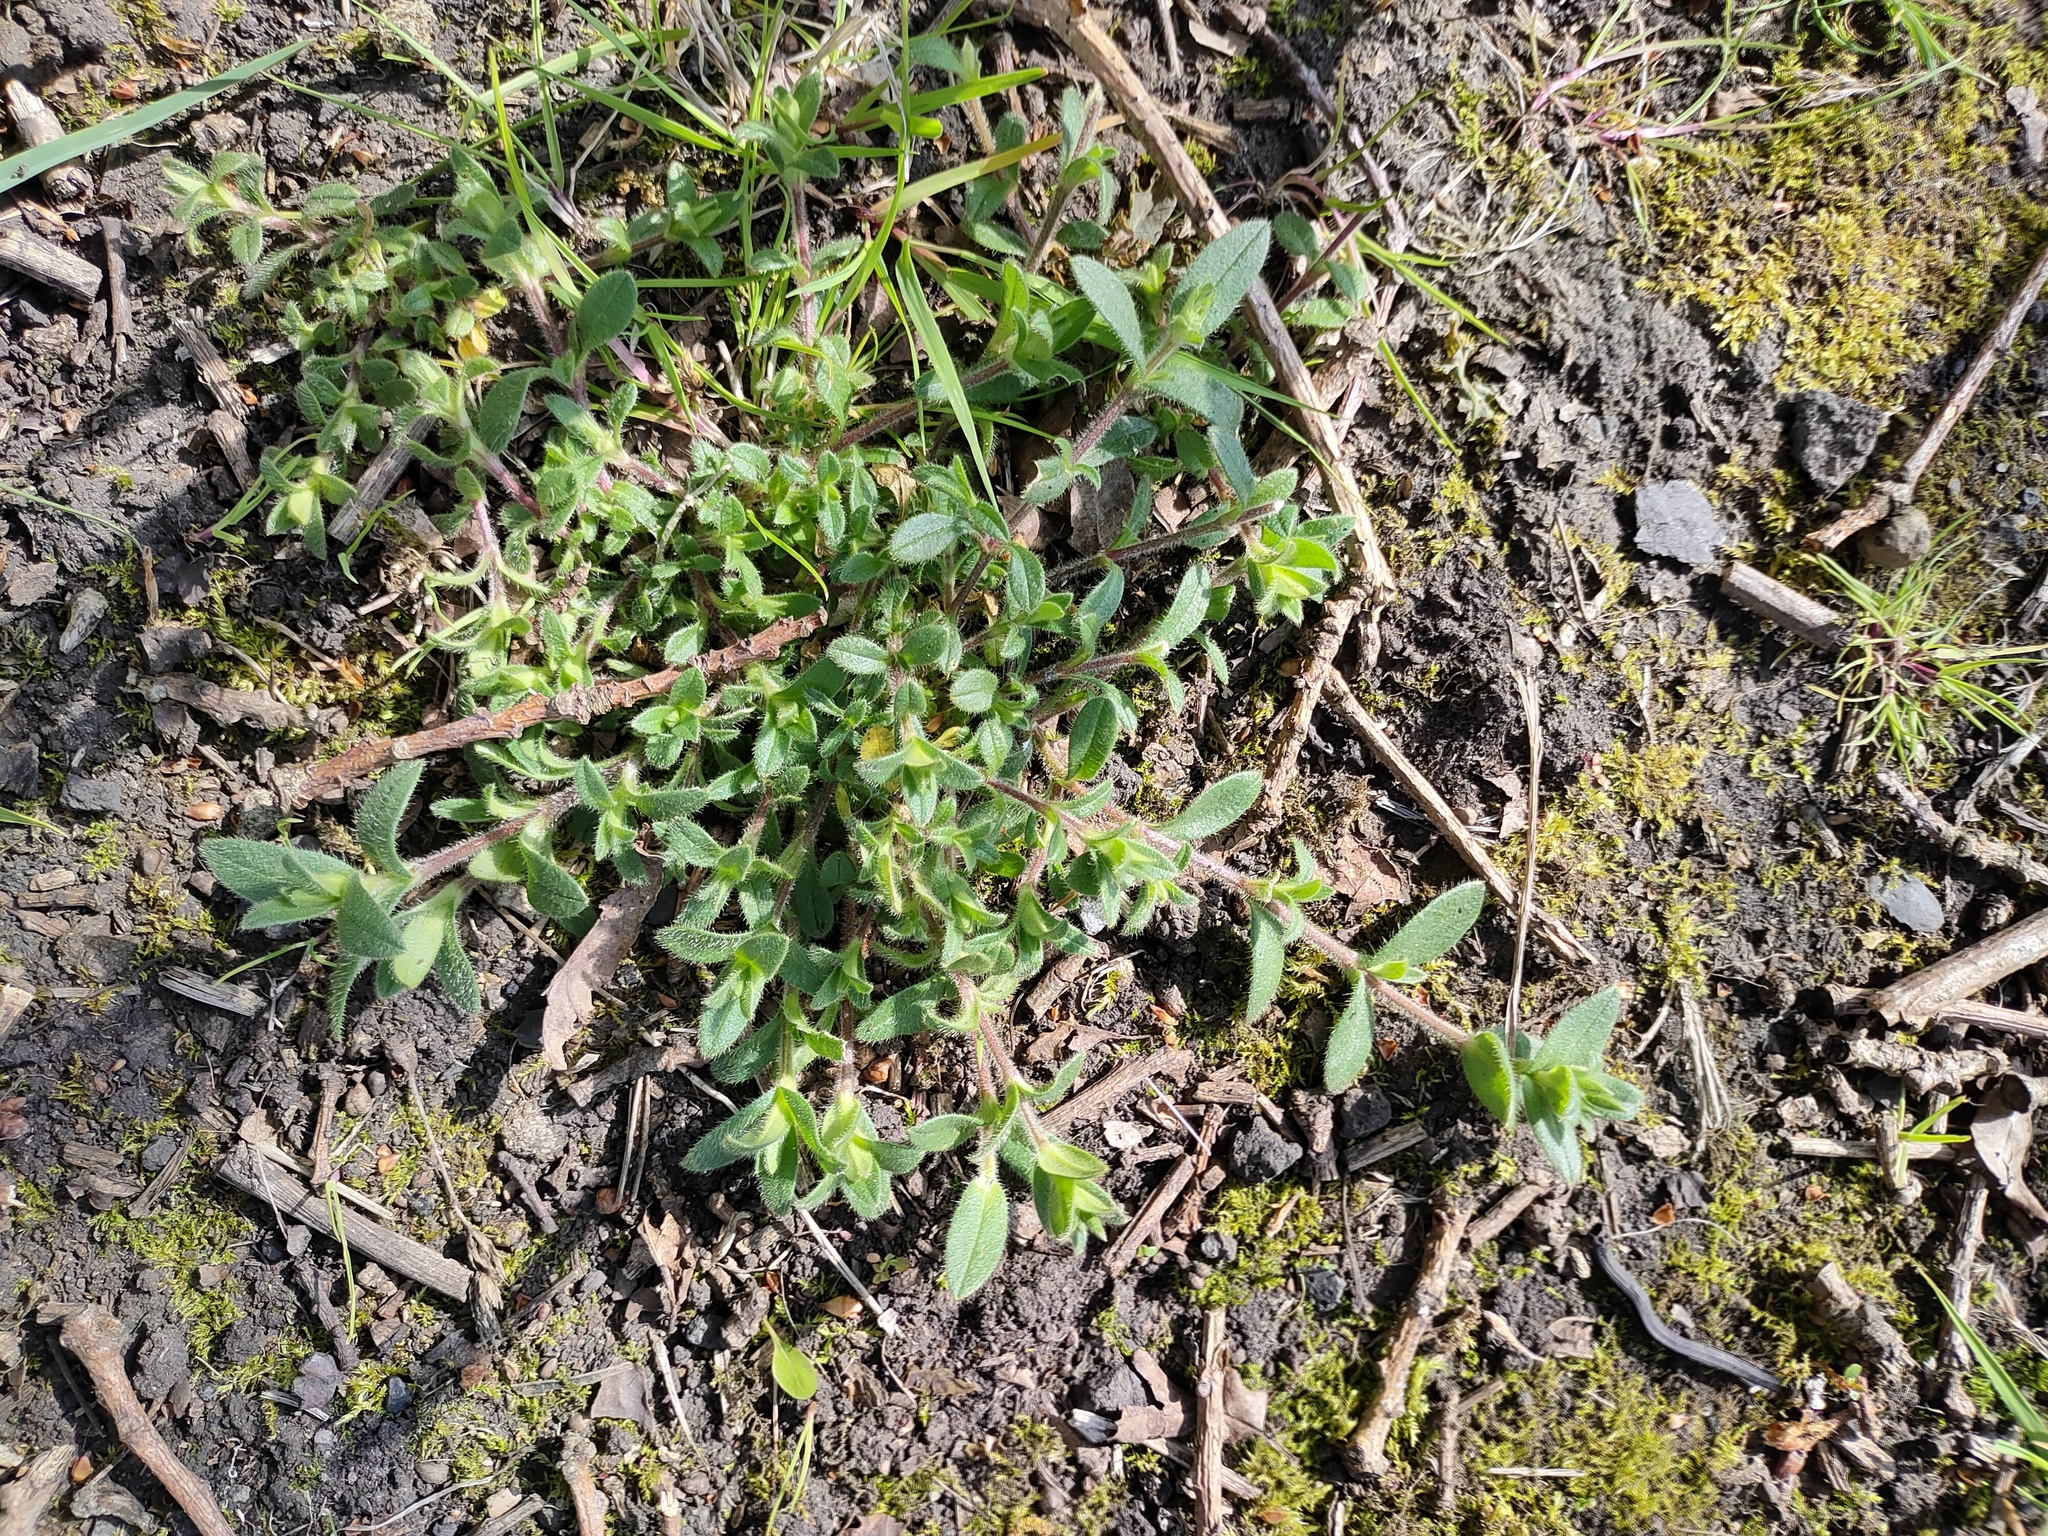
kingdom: Plantae
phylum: Tracheophyta
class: Magnoliopsida
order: Caryophyllales
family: Caryophyllaceae
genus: Cerastium
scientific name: Cerastium fontanum
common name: Common mouse-ear
